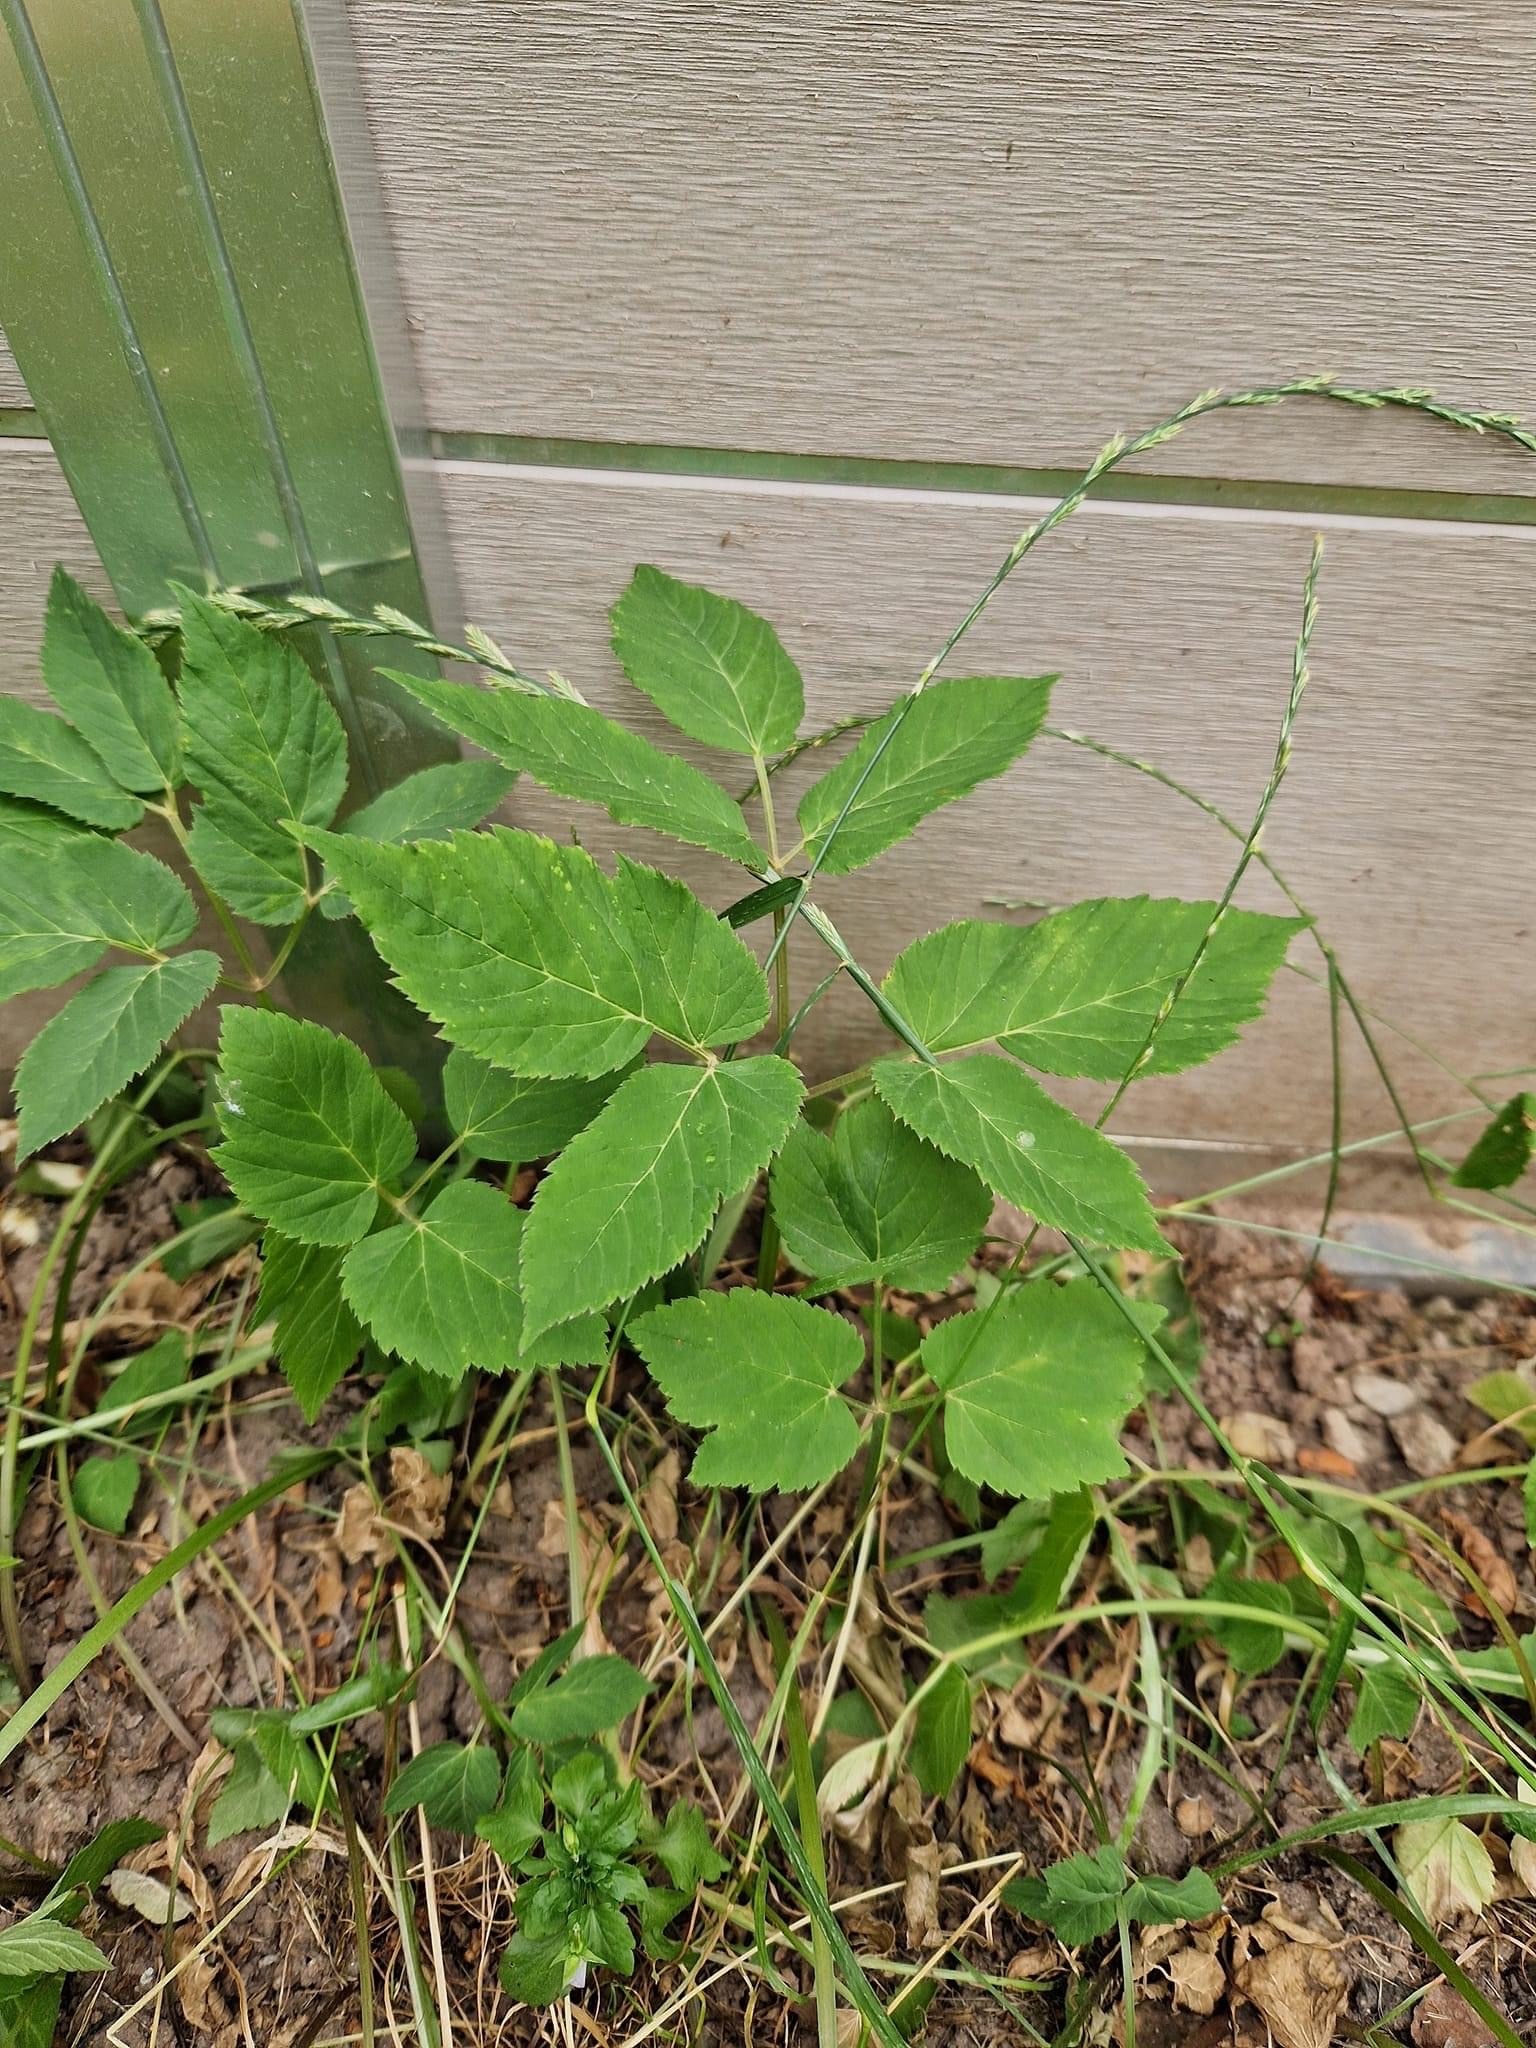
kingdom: Plantae
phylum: Tracheophyta
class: Magnoliopsida
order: Apiales
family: Apiaceae
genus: Aegopodium
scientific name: Aegopodium podagraria
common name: Ground-elder
